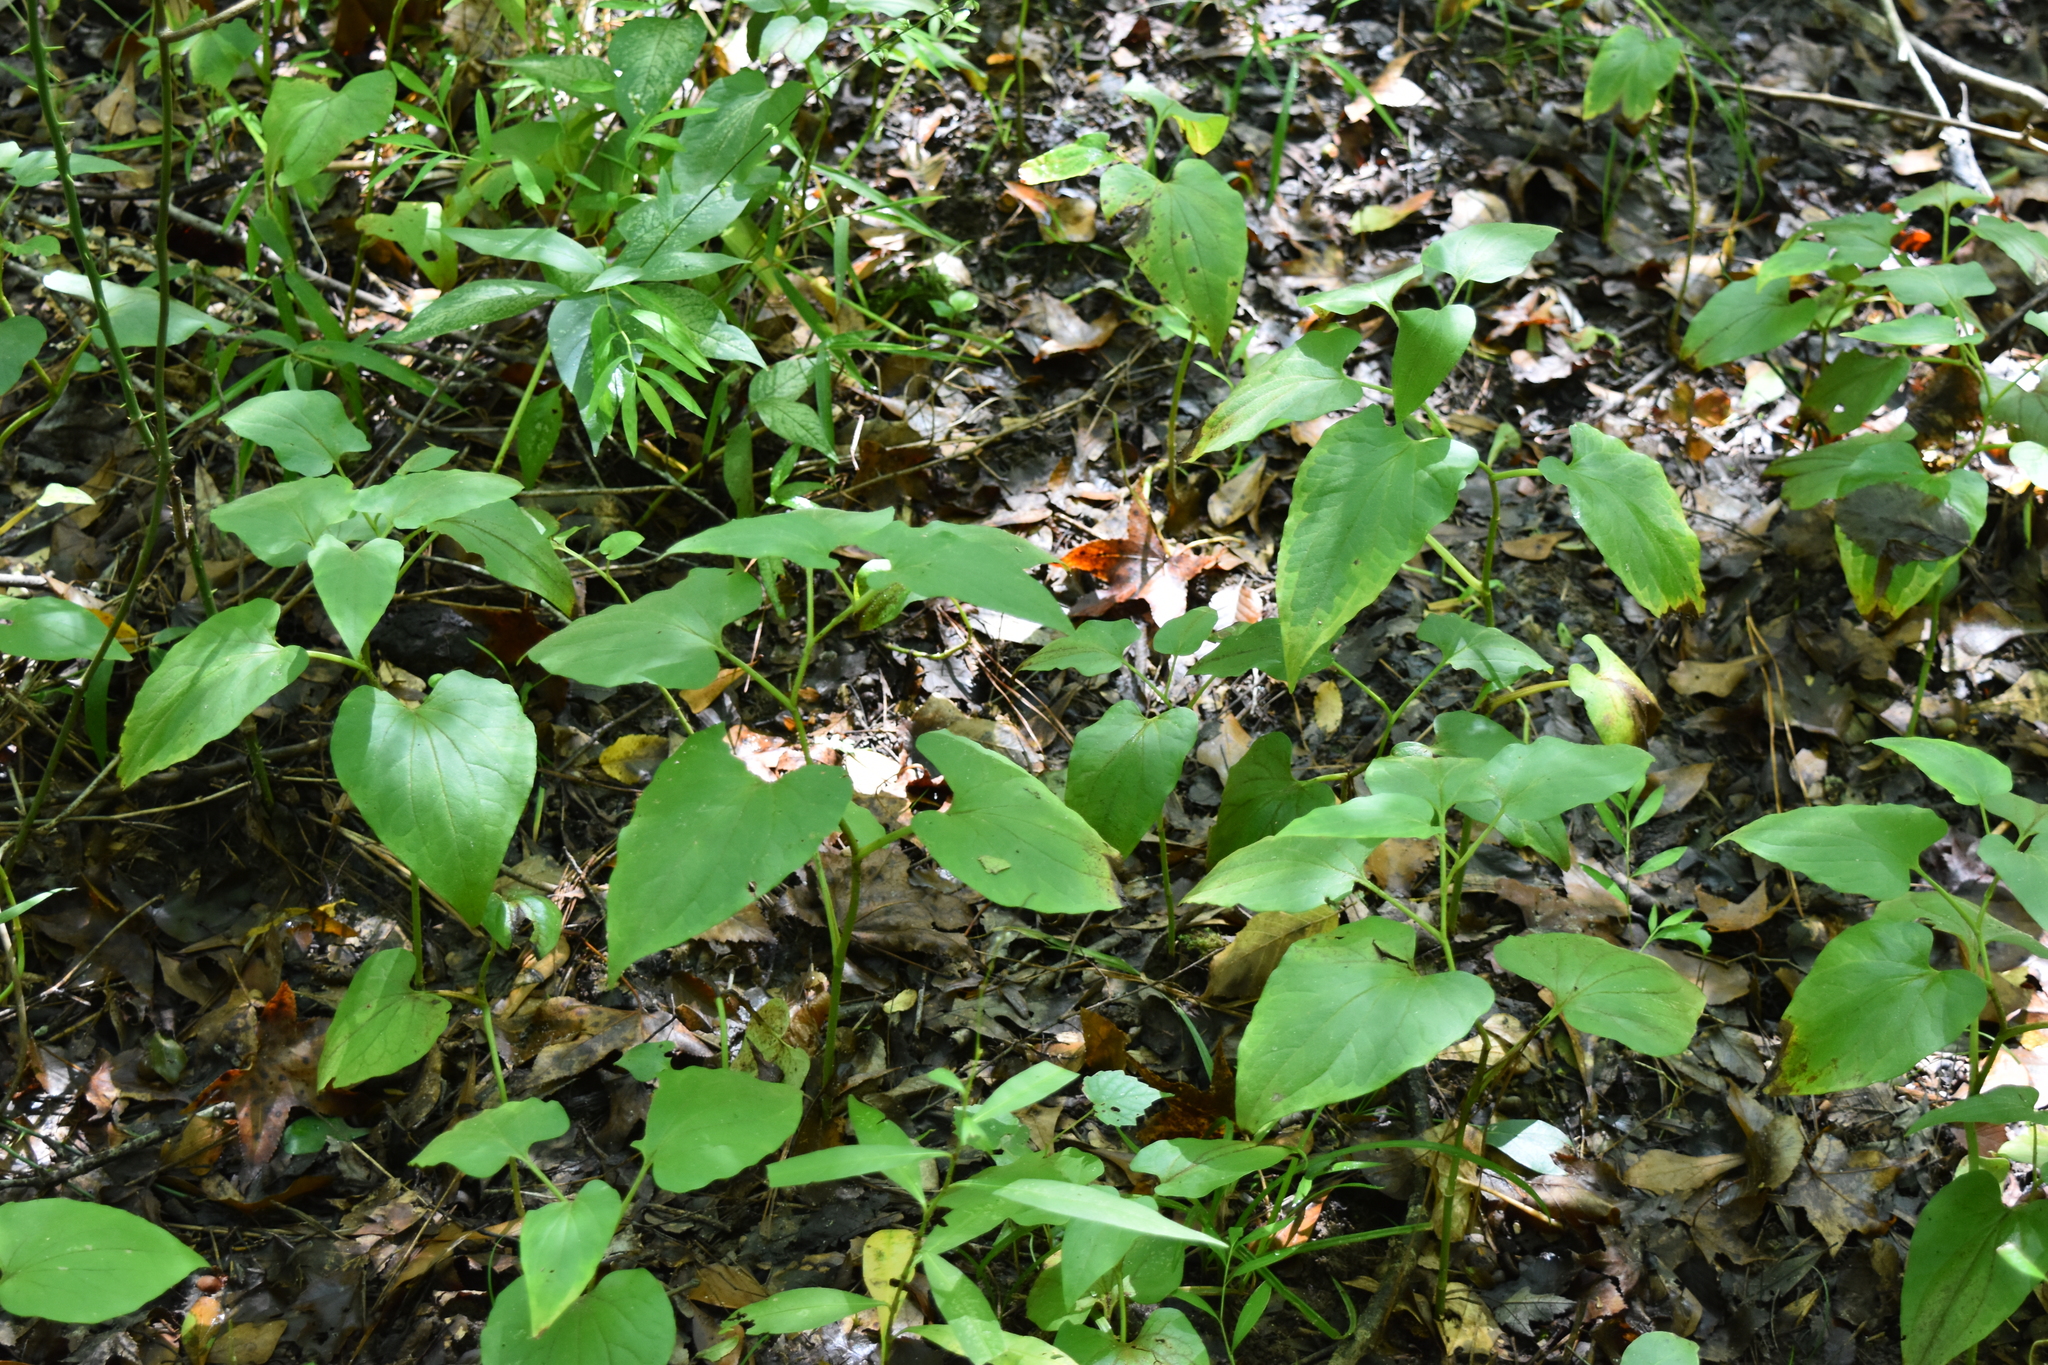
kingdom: Plantae
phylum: Tracheophyta
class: Magnoliopsida
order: Piperales
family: Saururaceae
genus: Saururus
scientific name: Saururus cernuus
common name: Lizard's-tail
